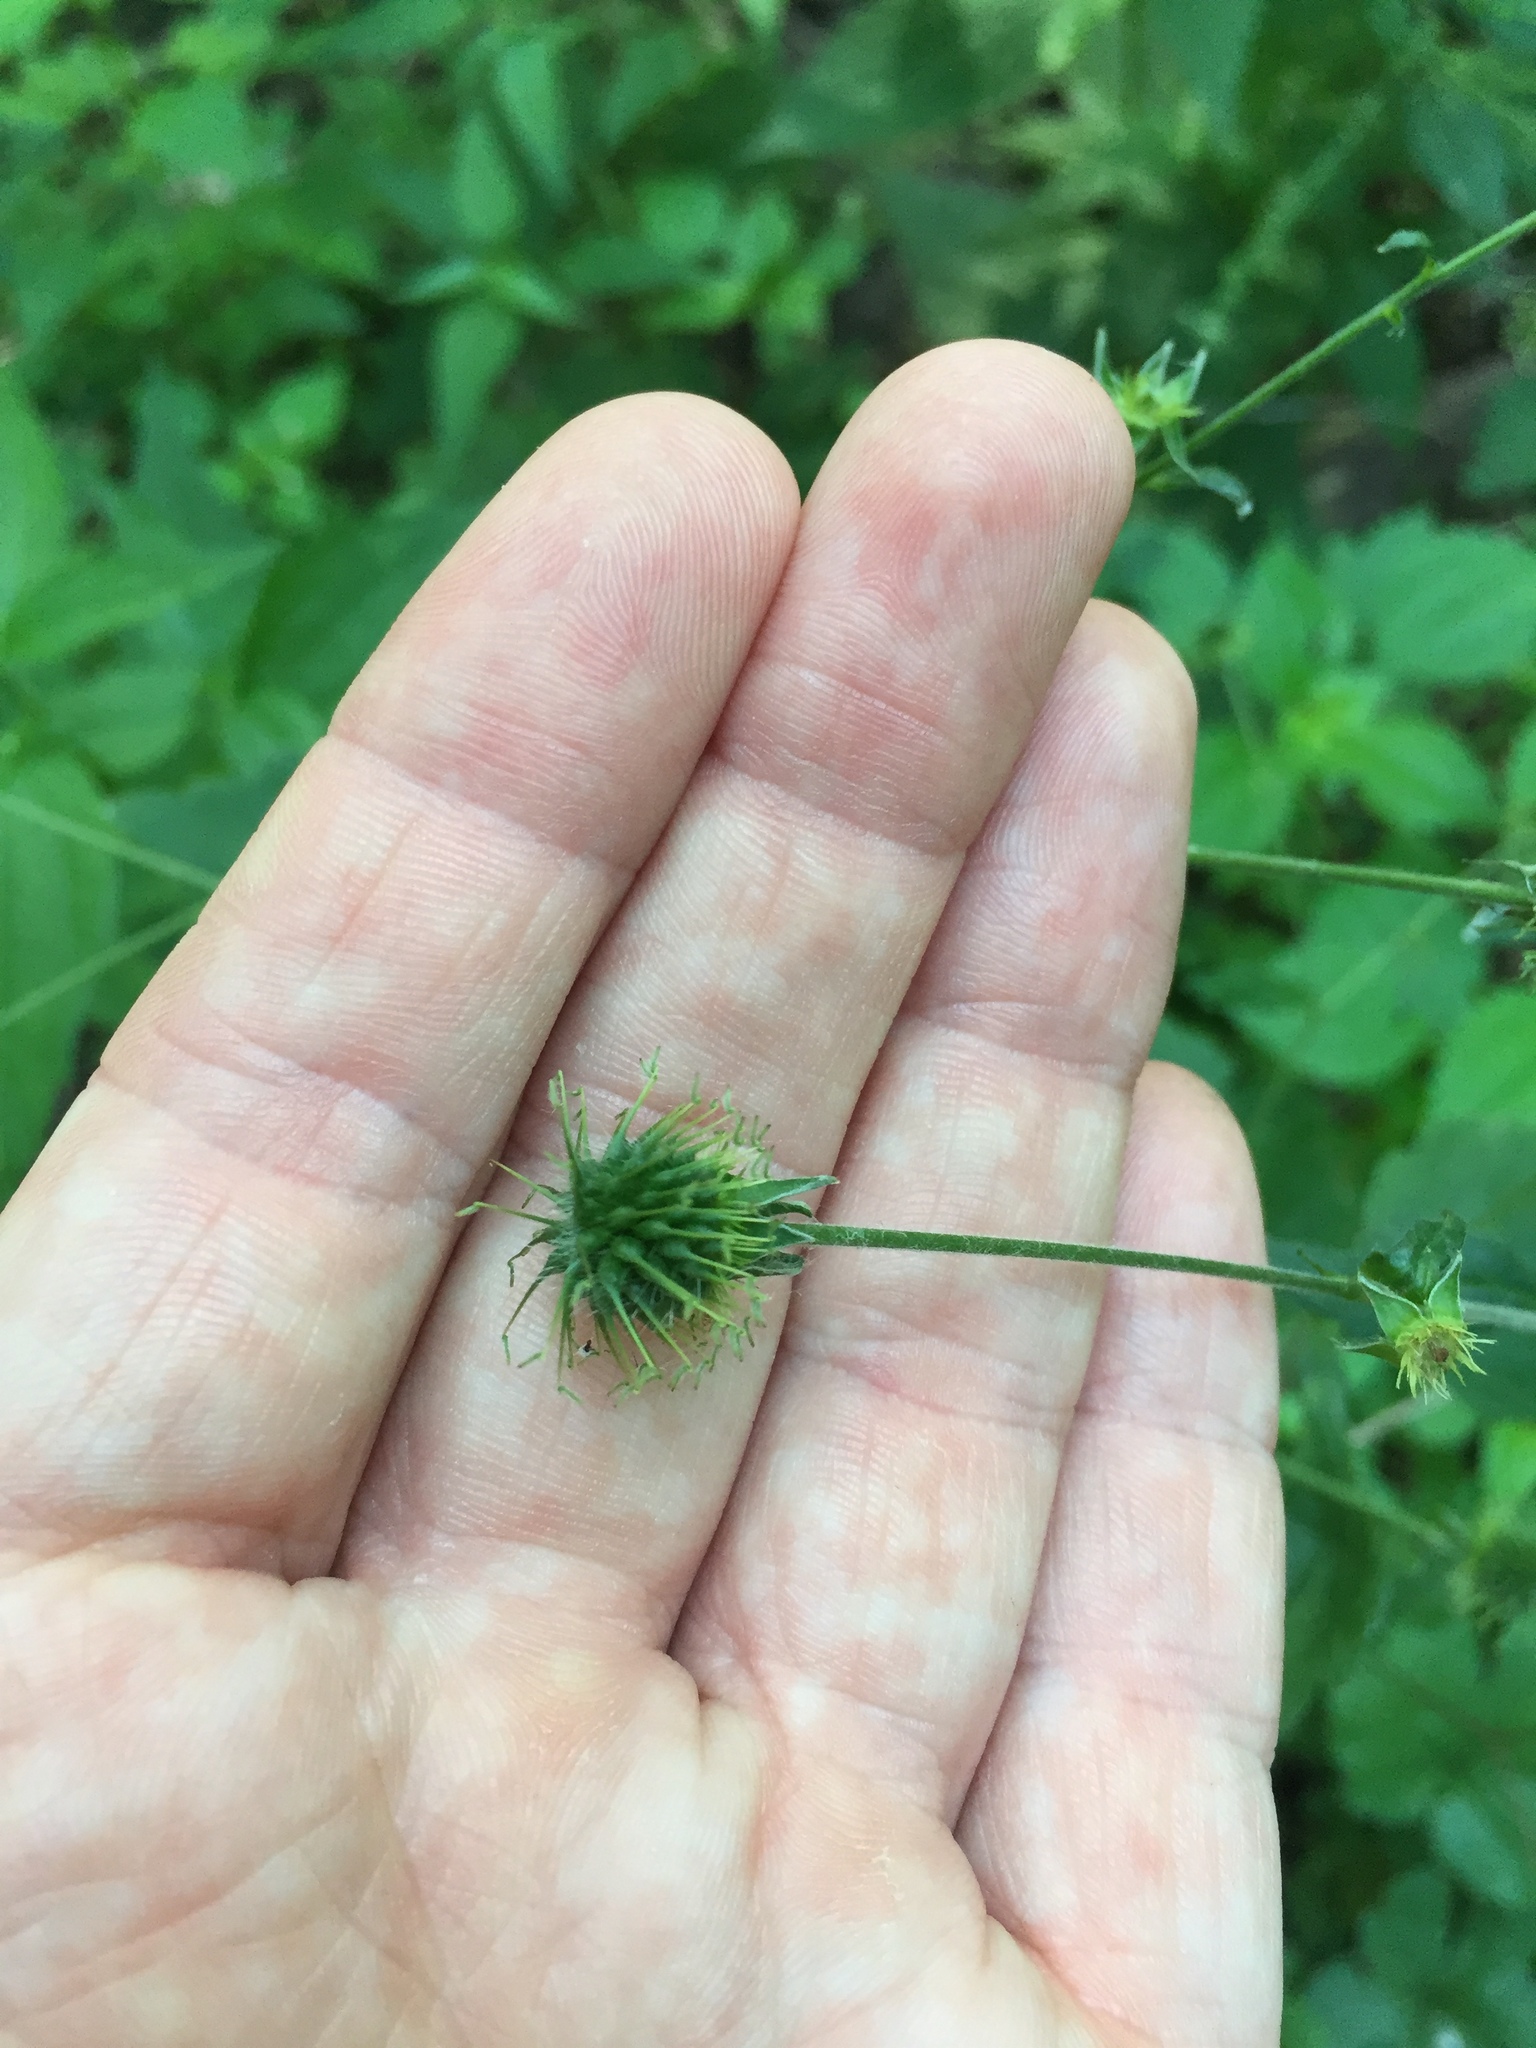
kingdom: Plantae
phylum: Tracheophyta
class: Magnoliopsida
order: Rosales
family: Rosaceae
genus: Geum
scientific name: Geum canadense
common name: White avens
